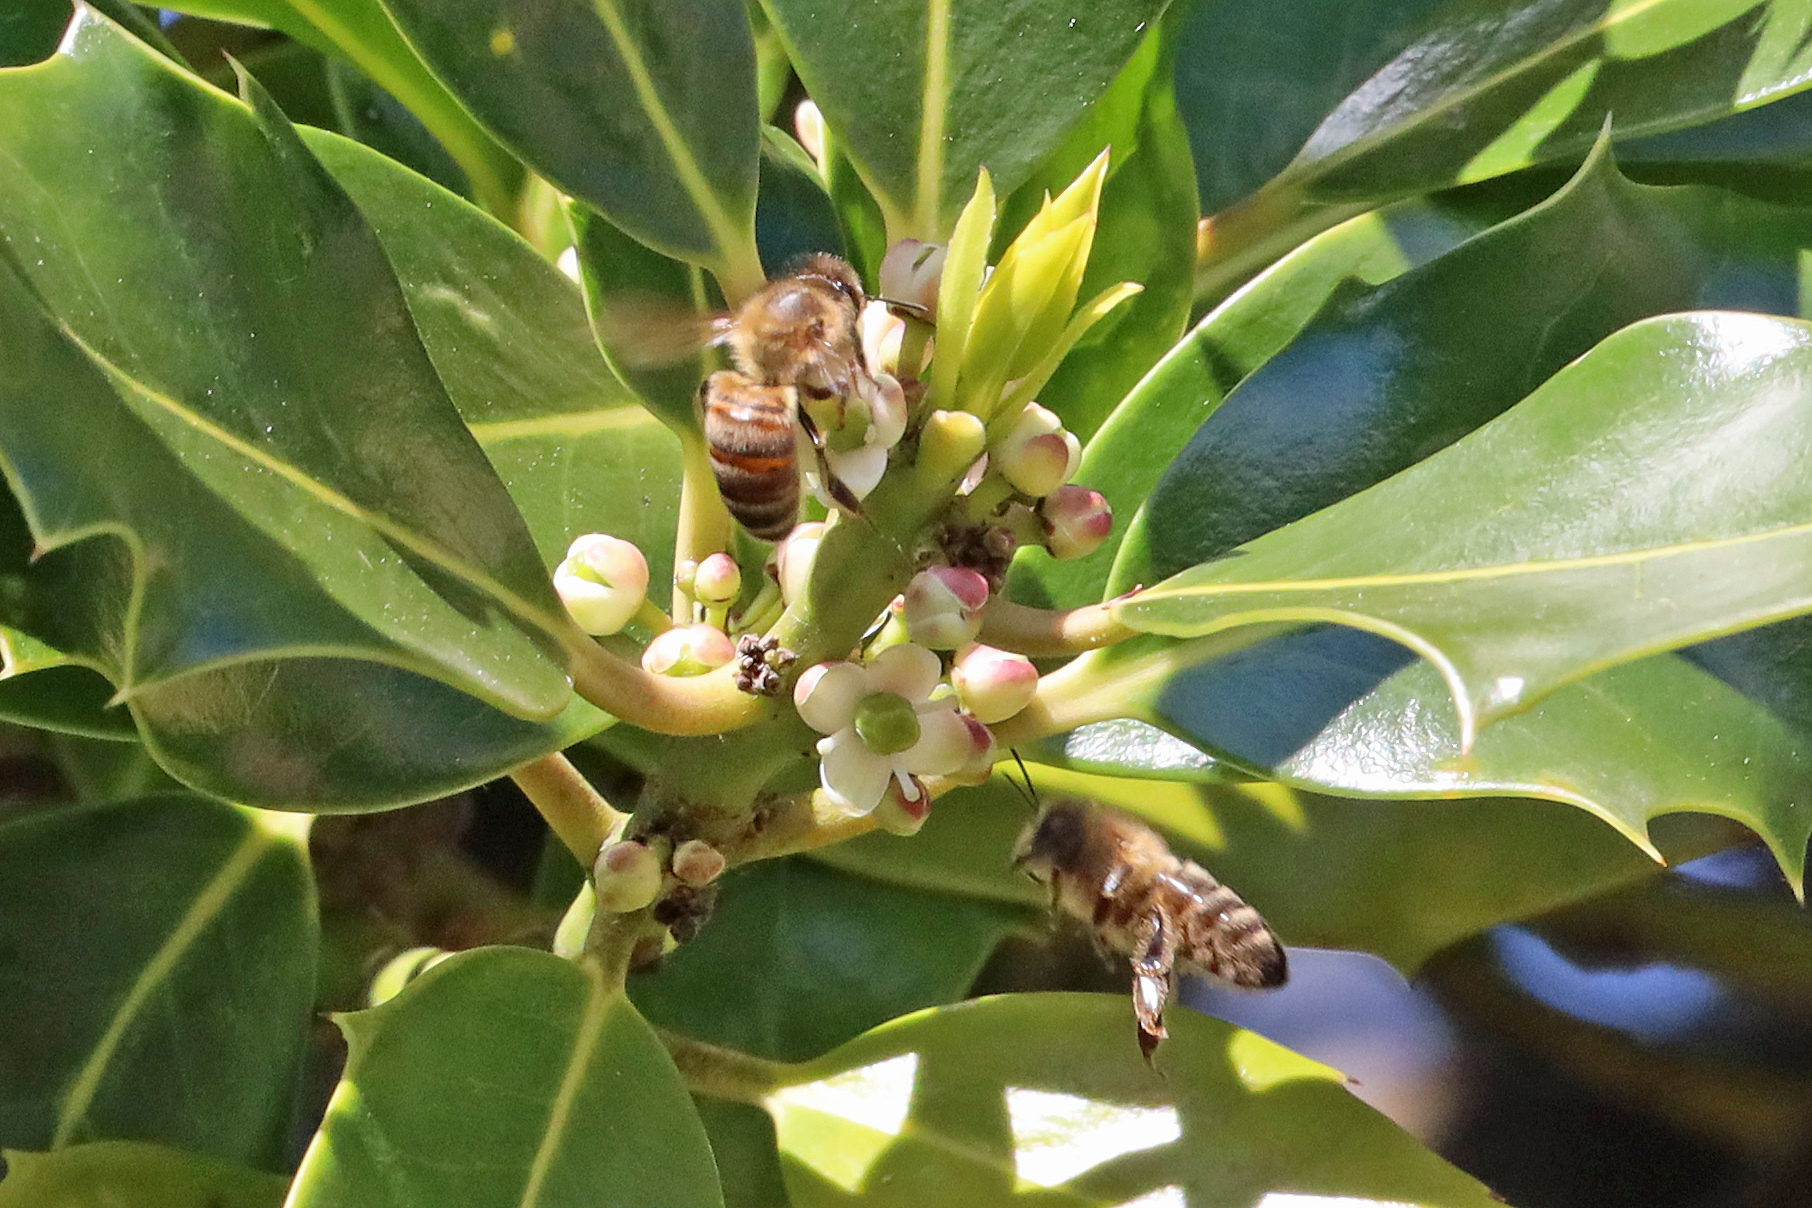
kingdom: Animalia
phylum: Arthropoda
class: Insecta
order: Hymenoptera
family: Apidae
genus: Apis
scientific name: Apis mellifera
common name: Honey bee
